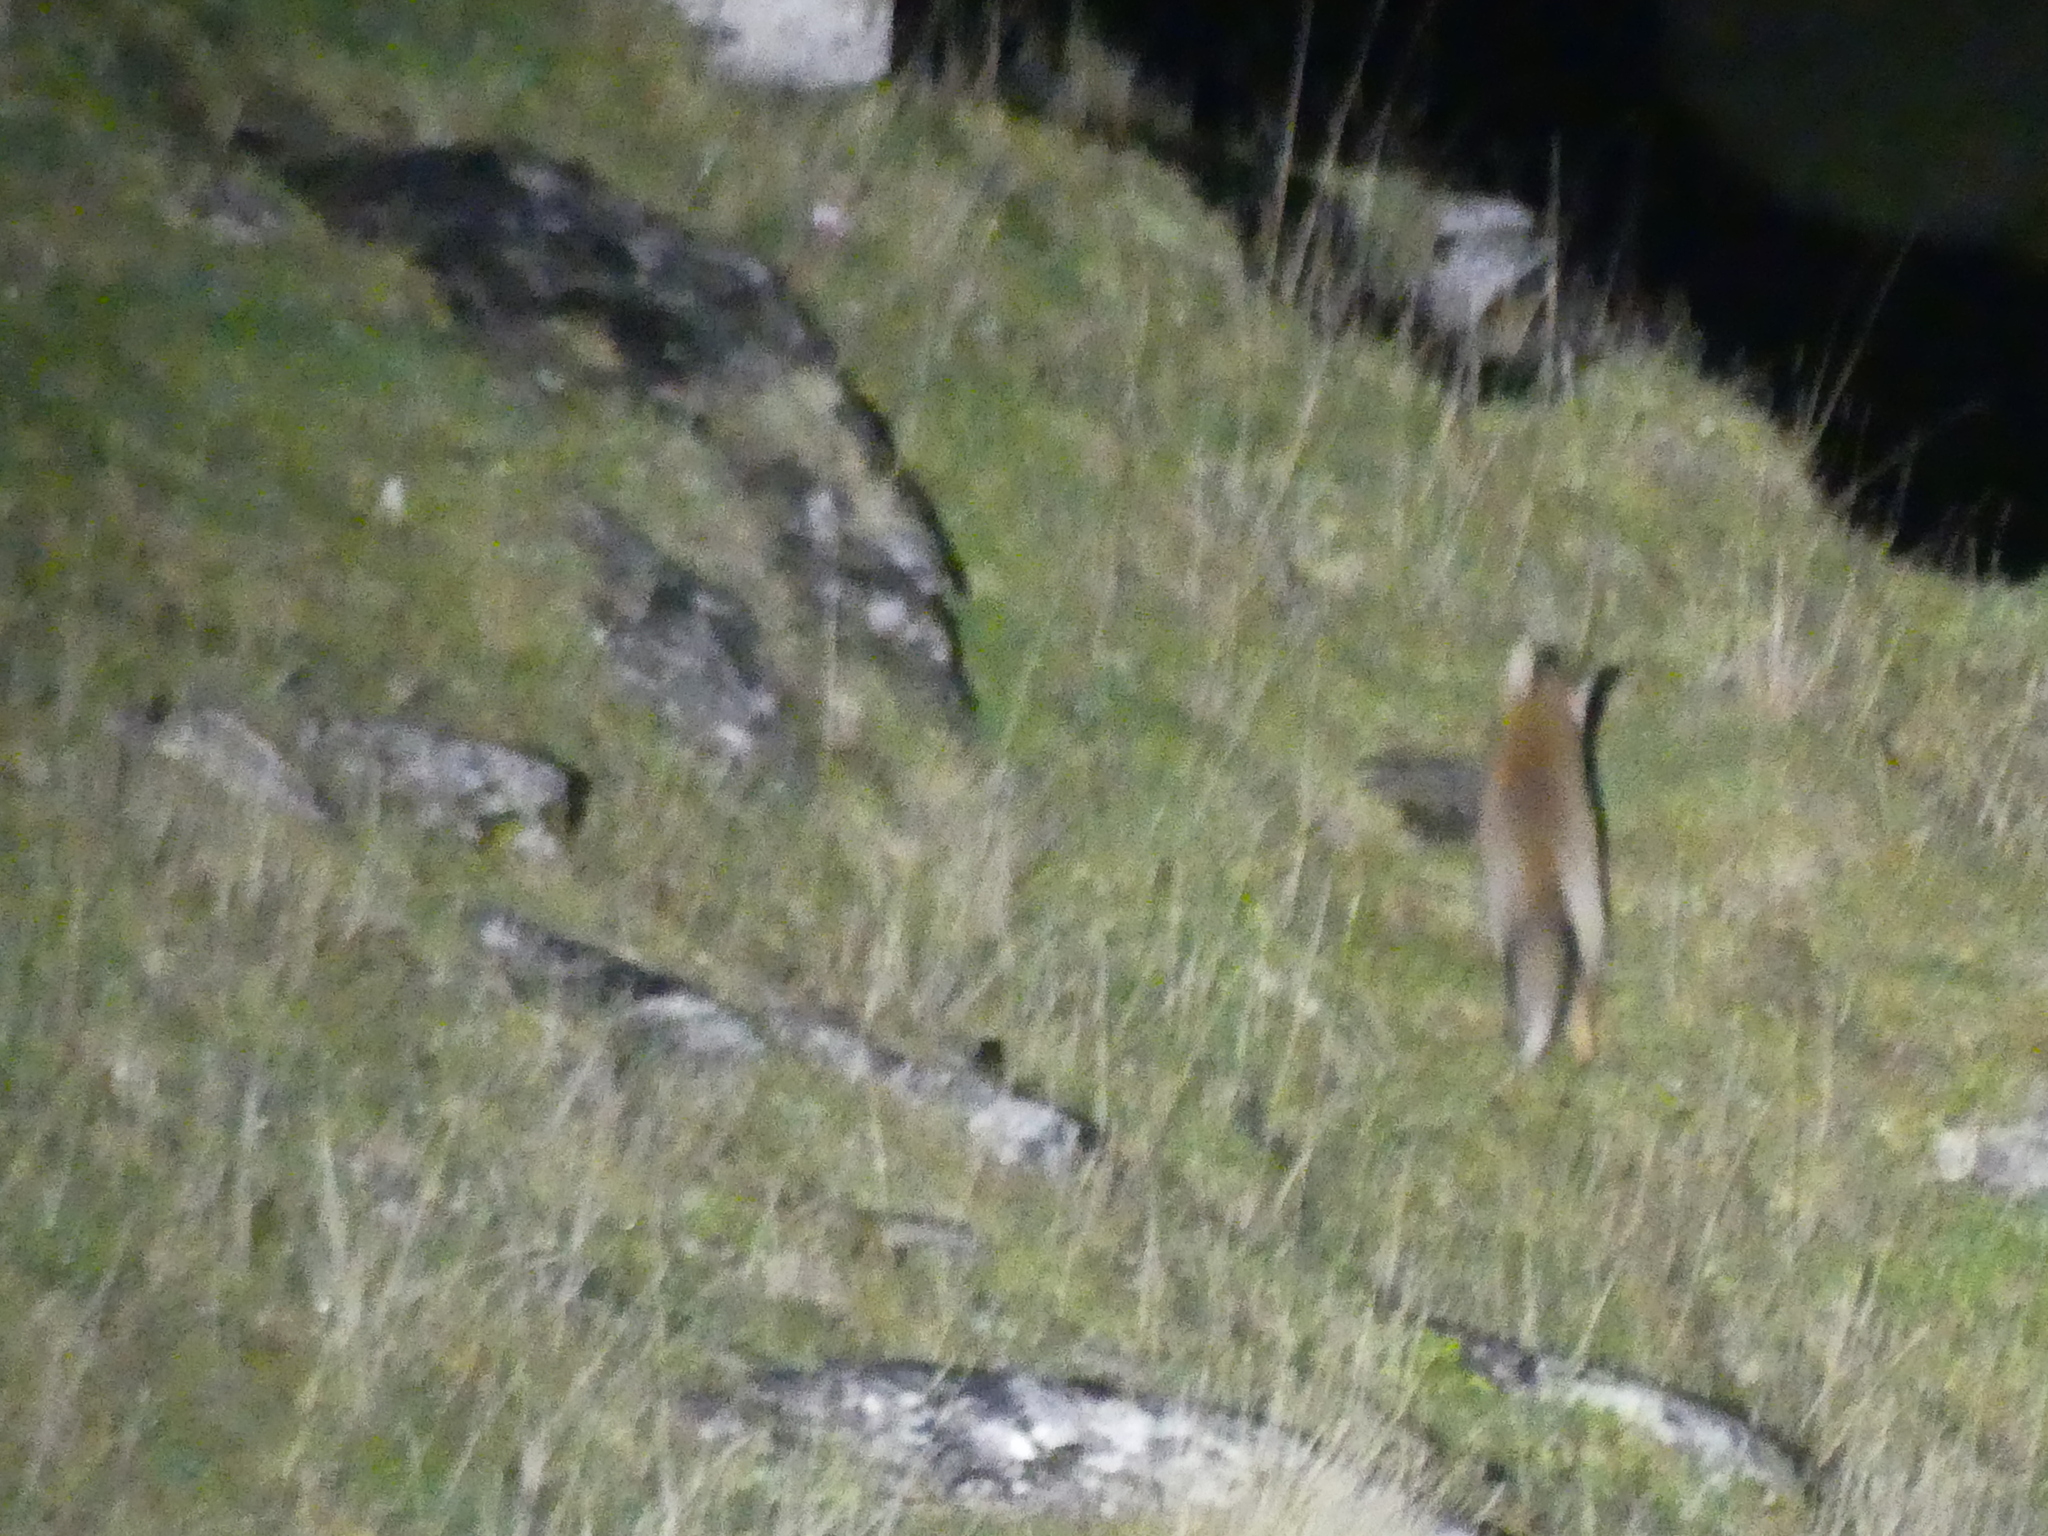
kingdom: Animalia
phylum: Chordata
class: Mammalia
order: Carnivora
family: Canidae
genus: Vulpes
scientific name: Vulpes vulpes
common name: Red fox
